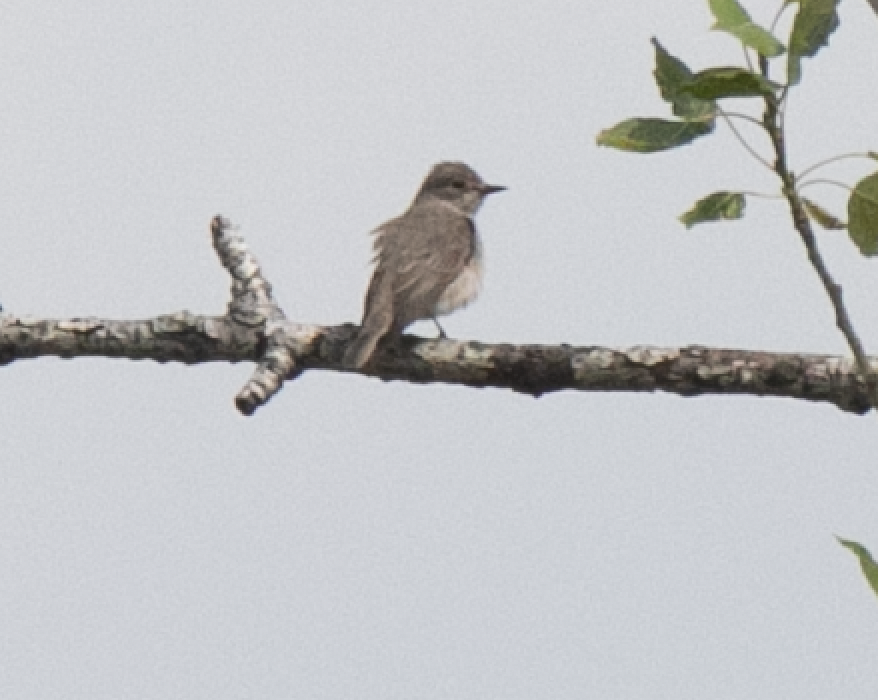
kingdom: Animalia
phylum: Chordata
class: Aves
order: Passeriformes
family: Muscicapidae
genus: Muscicapa
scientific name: Muscicapa striata
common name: Spotted flycatcher
